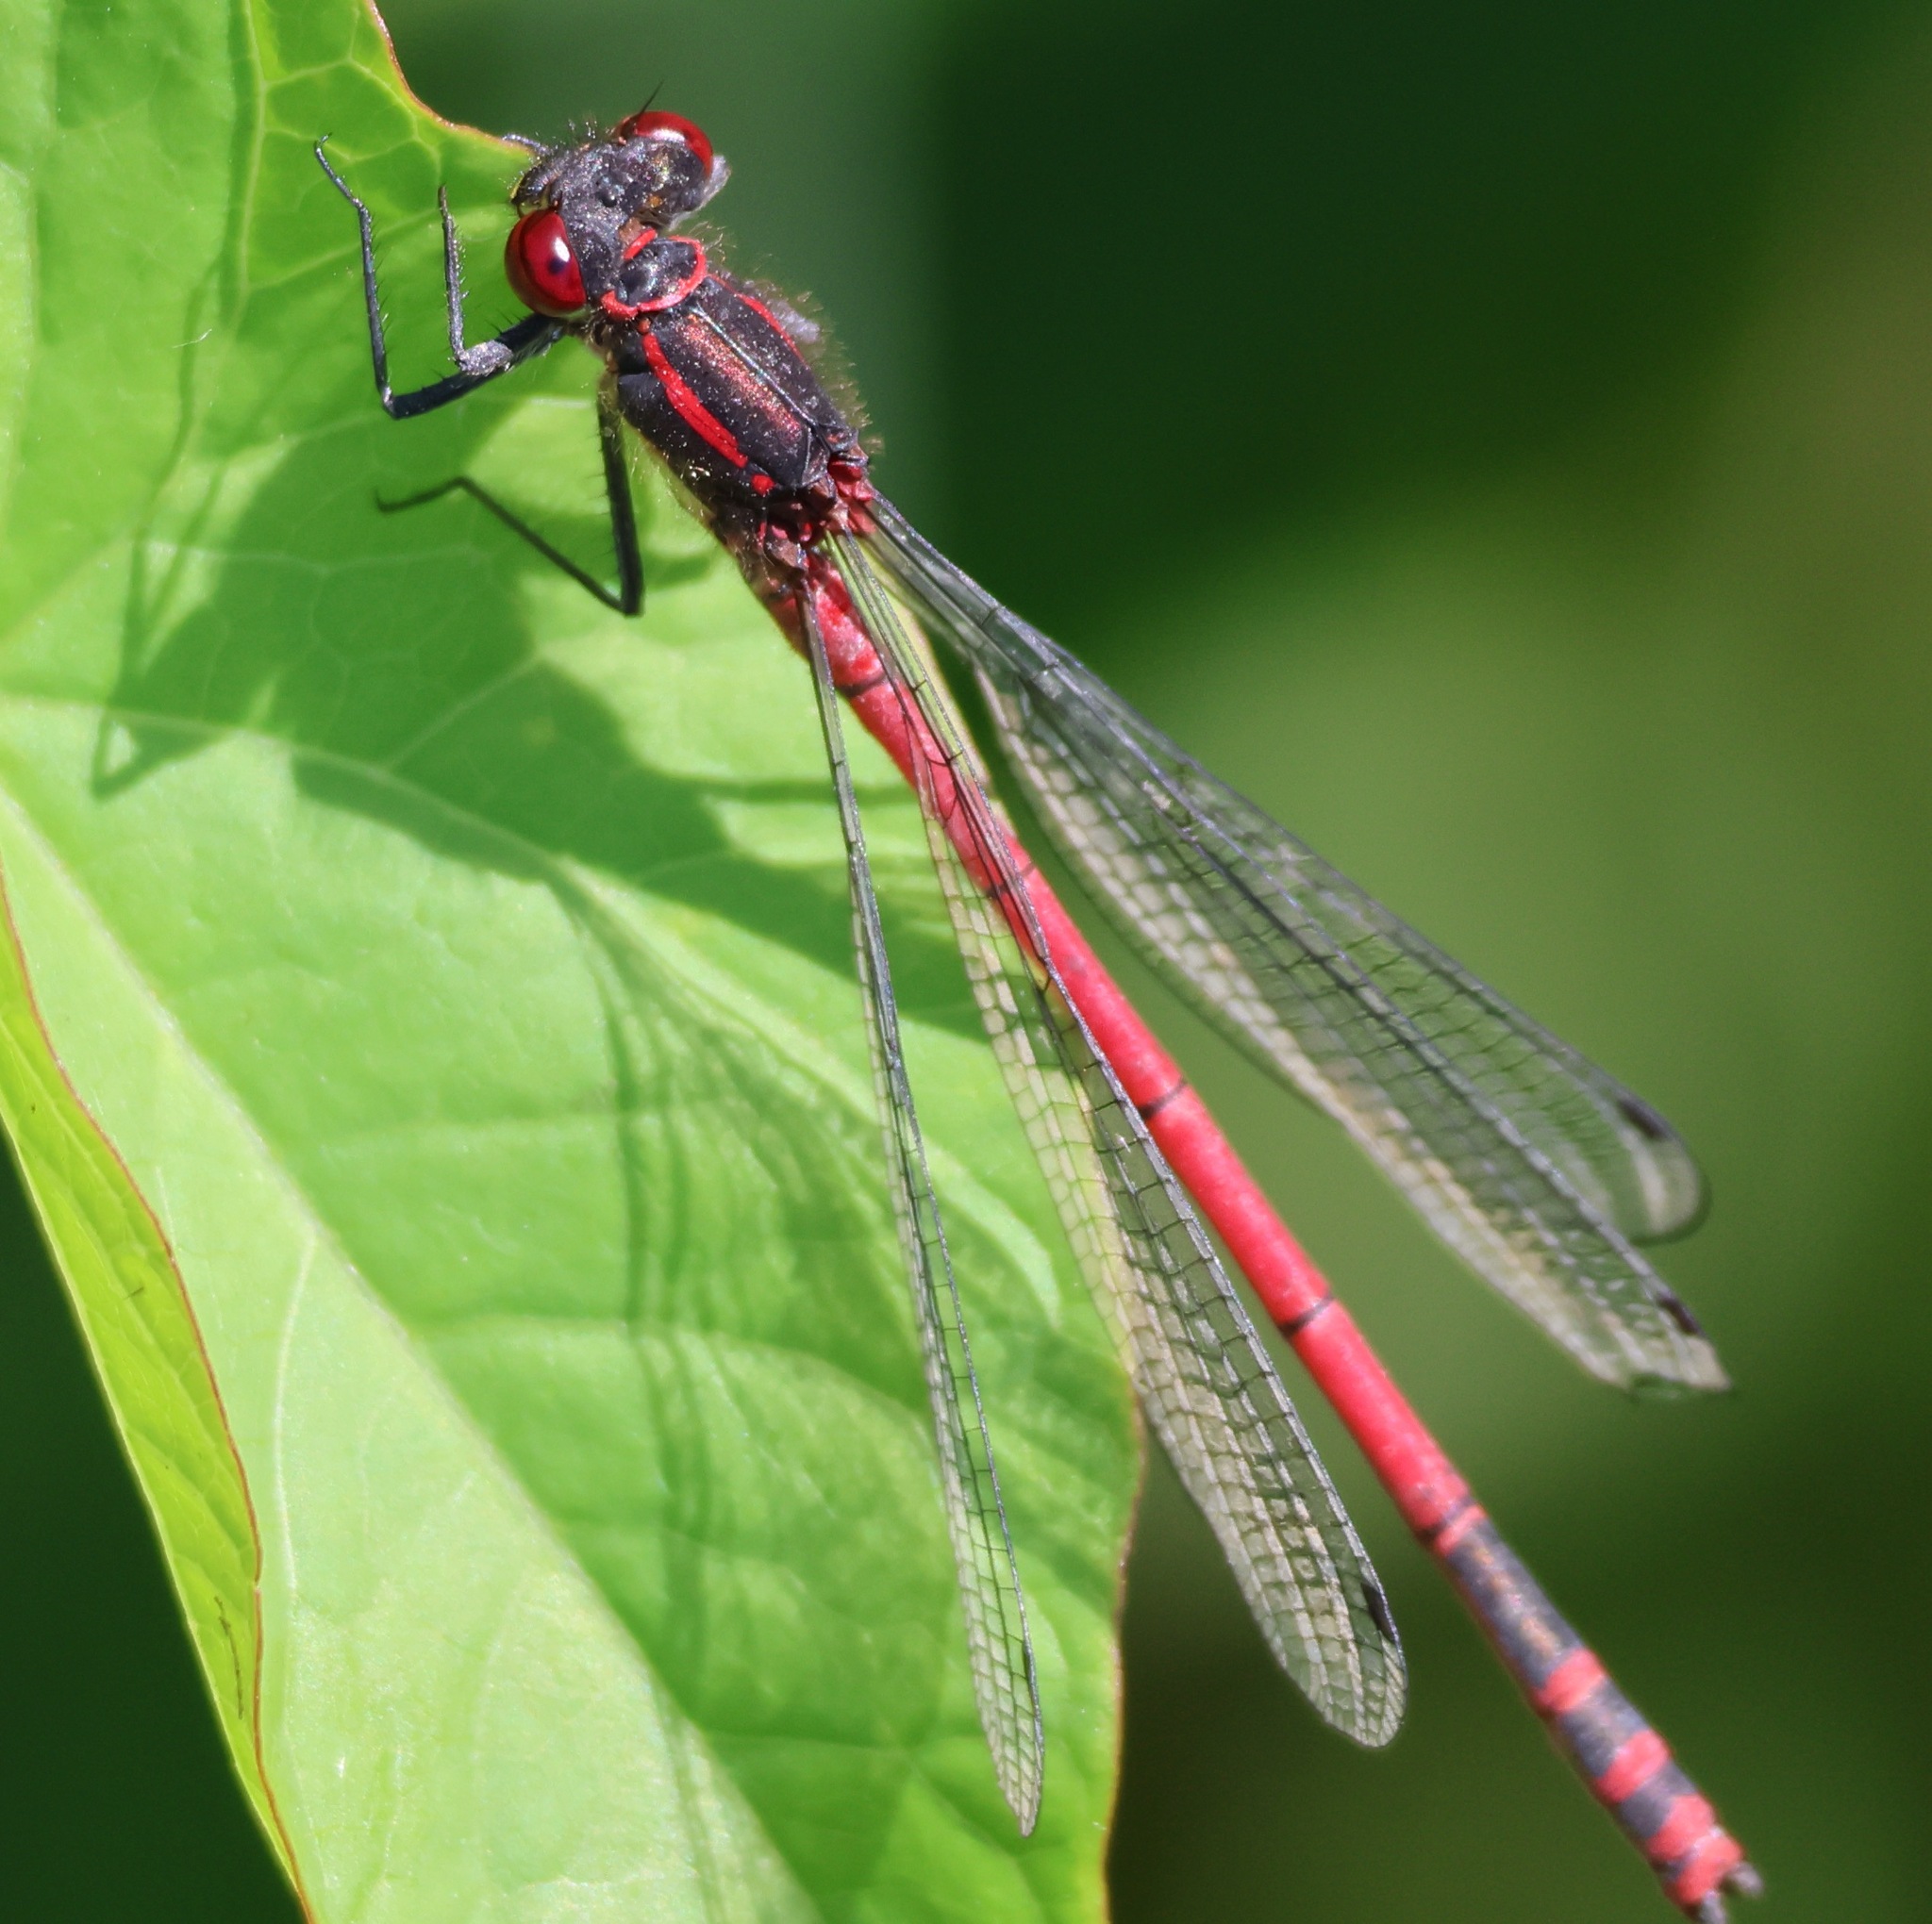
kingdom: Animalia
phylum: Arthropoda
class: Insecta
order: Odonata
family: Coenagrionidae
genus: Pyrrhosoma
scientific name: Pyrrhosoma nymphula
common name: Large red damsel
